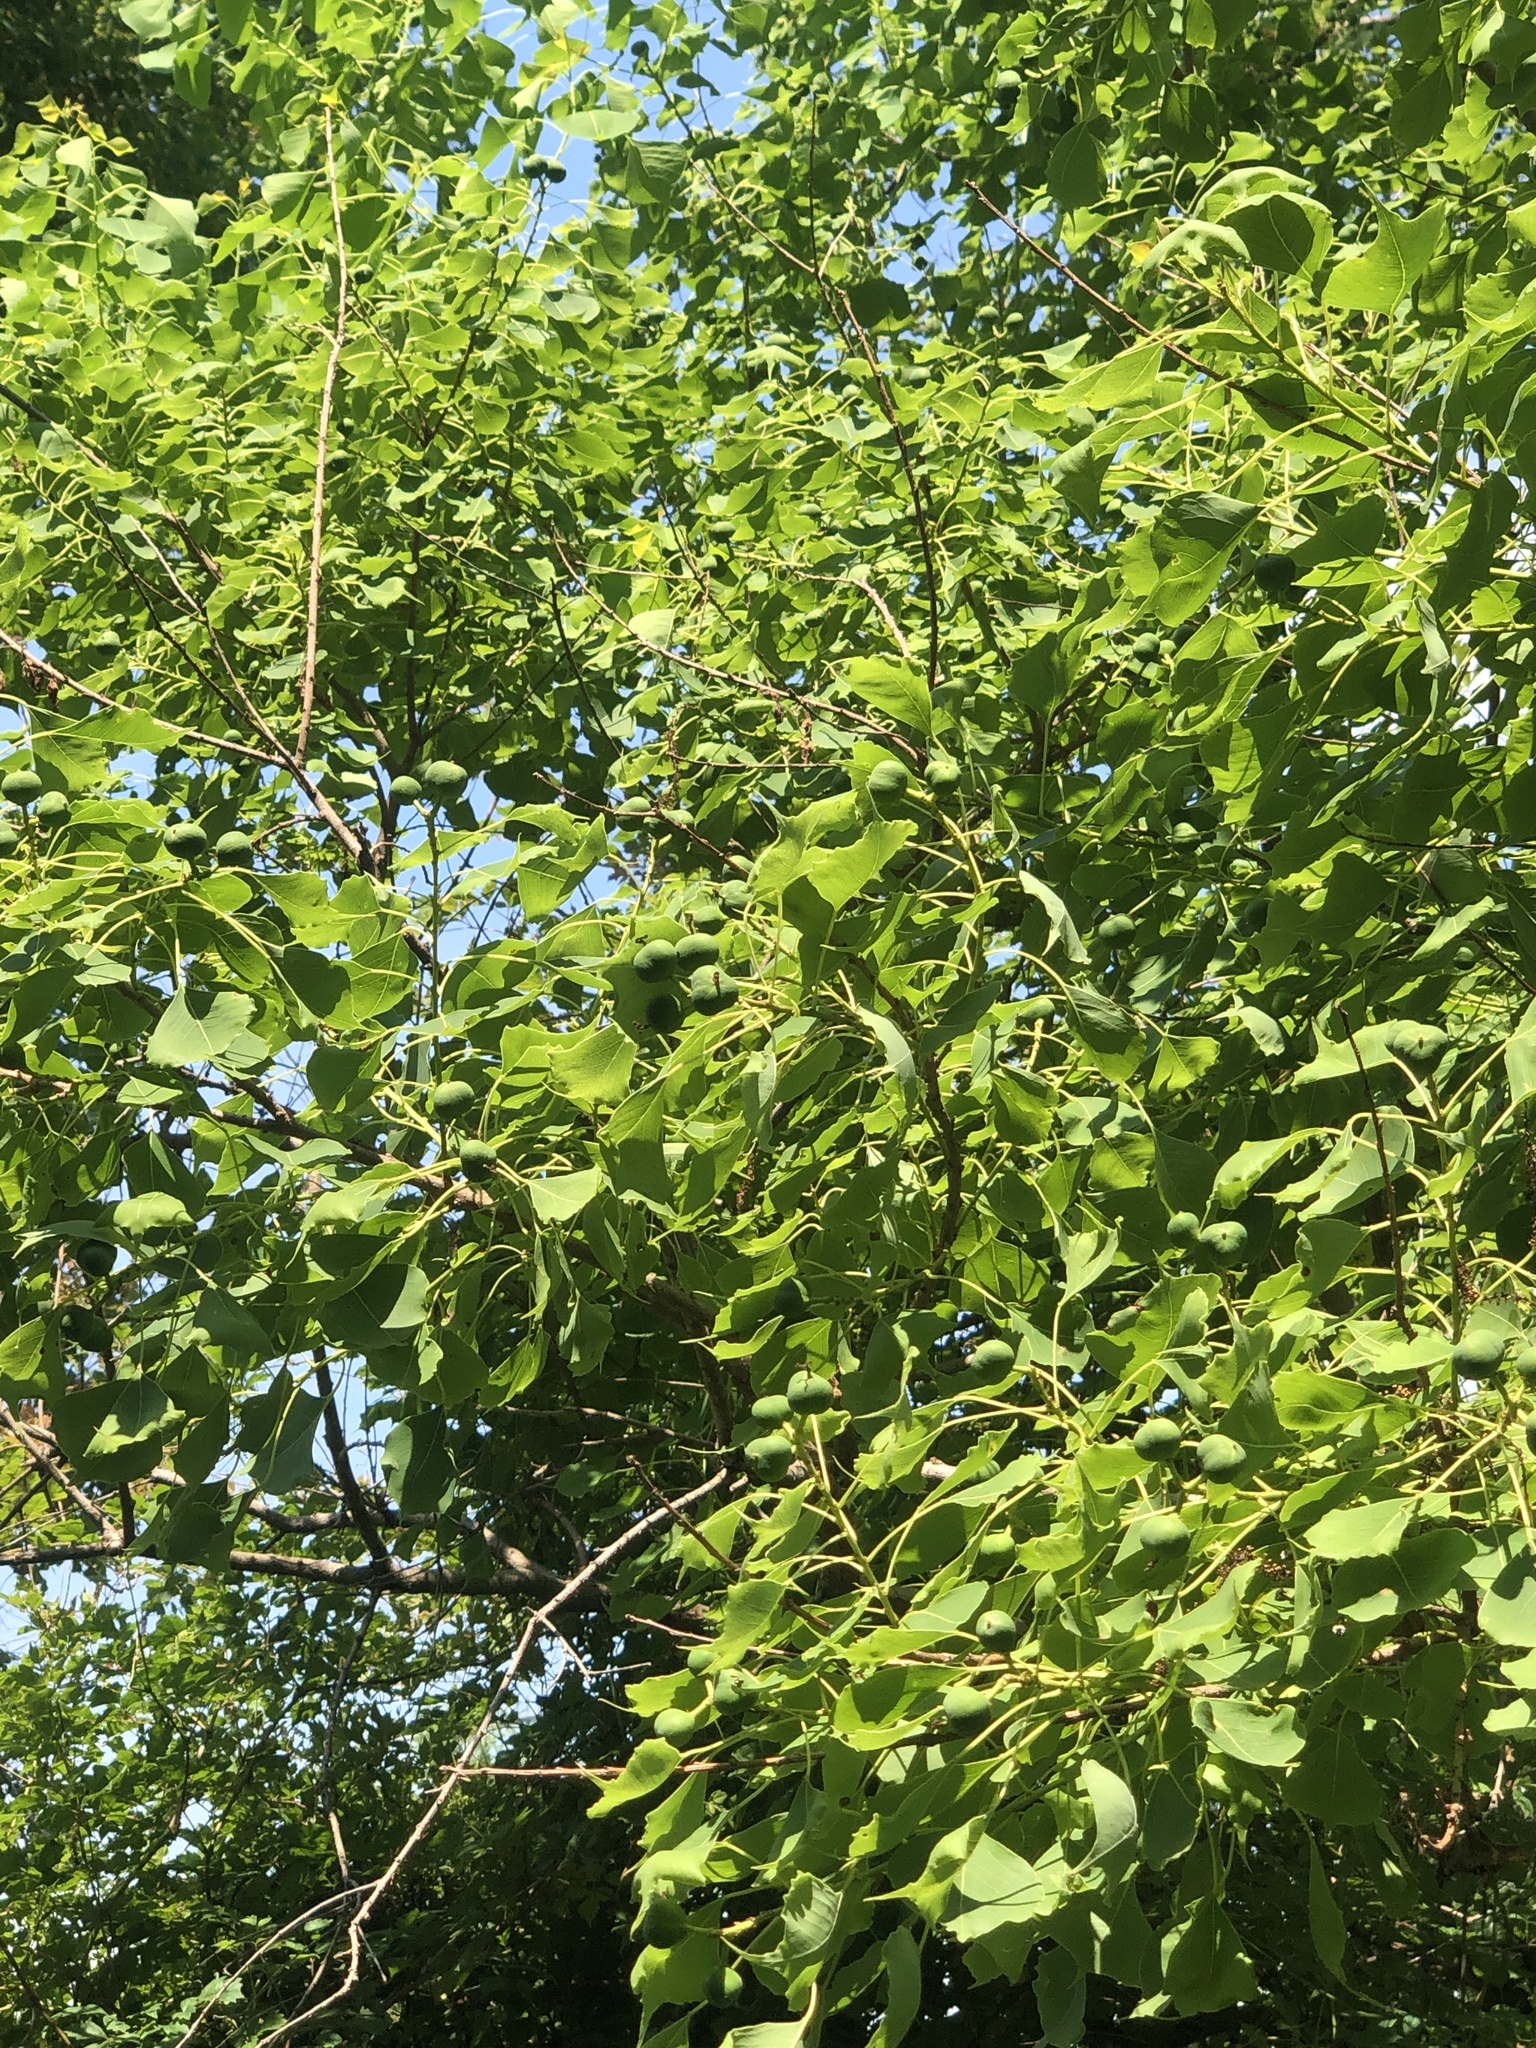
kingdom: Plantae
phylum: Tracheophyta
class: Magnoliopsida
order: Malpighiales
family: Euphorbiaceae
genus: Triadica
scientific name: Triadica sebifera
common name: Chinese tallow
